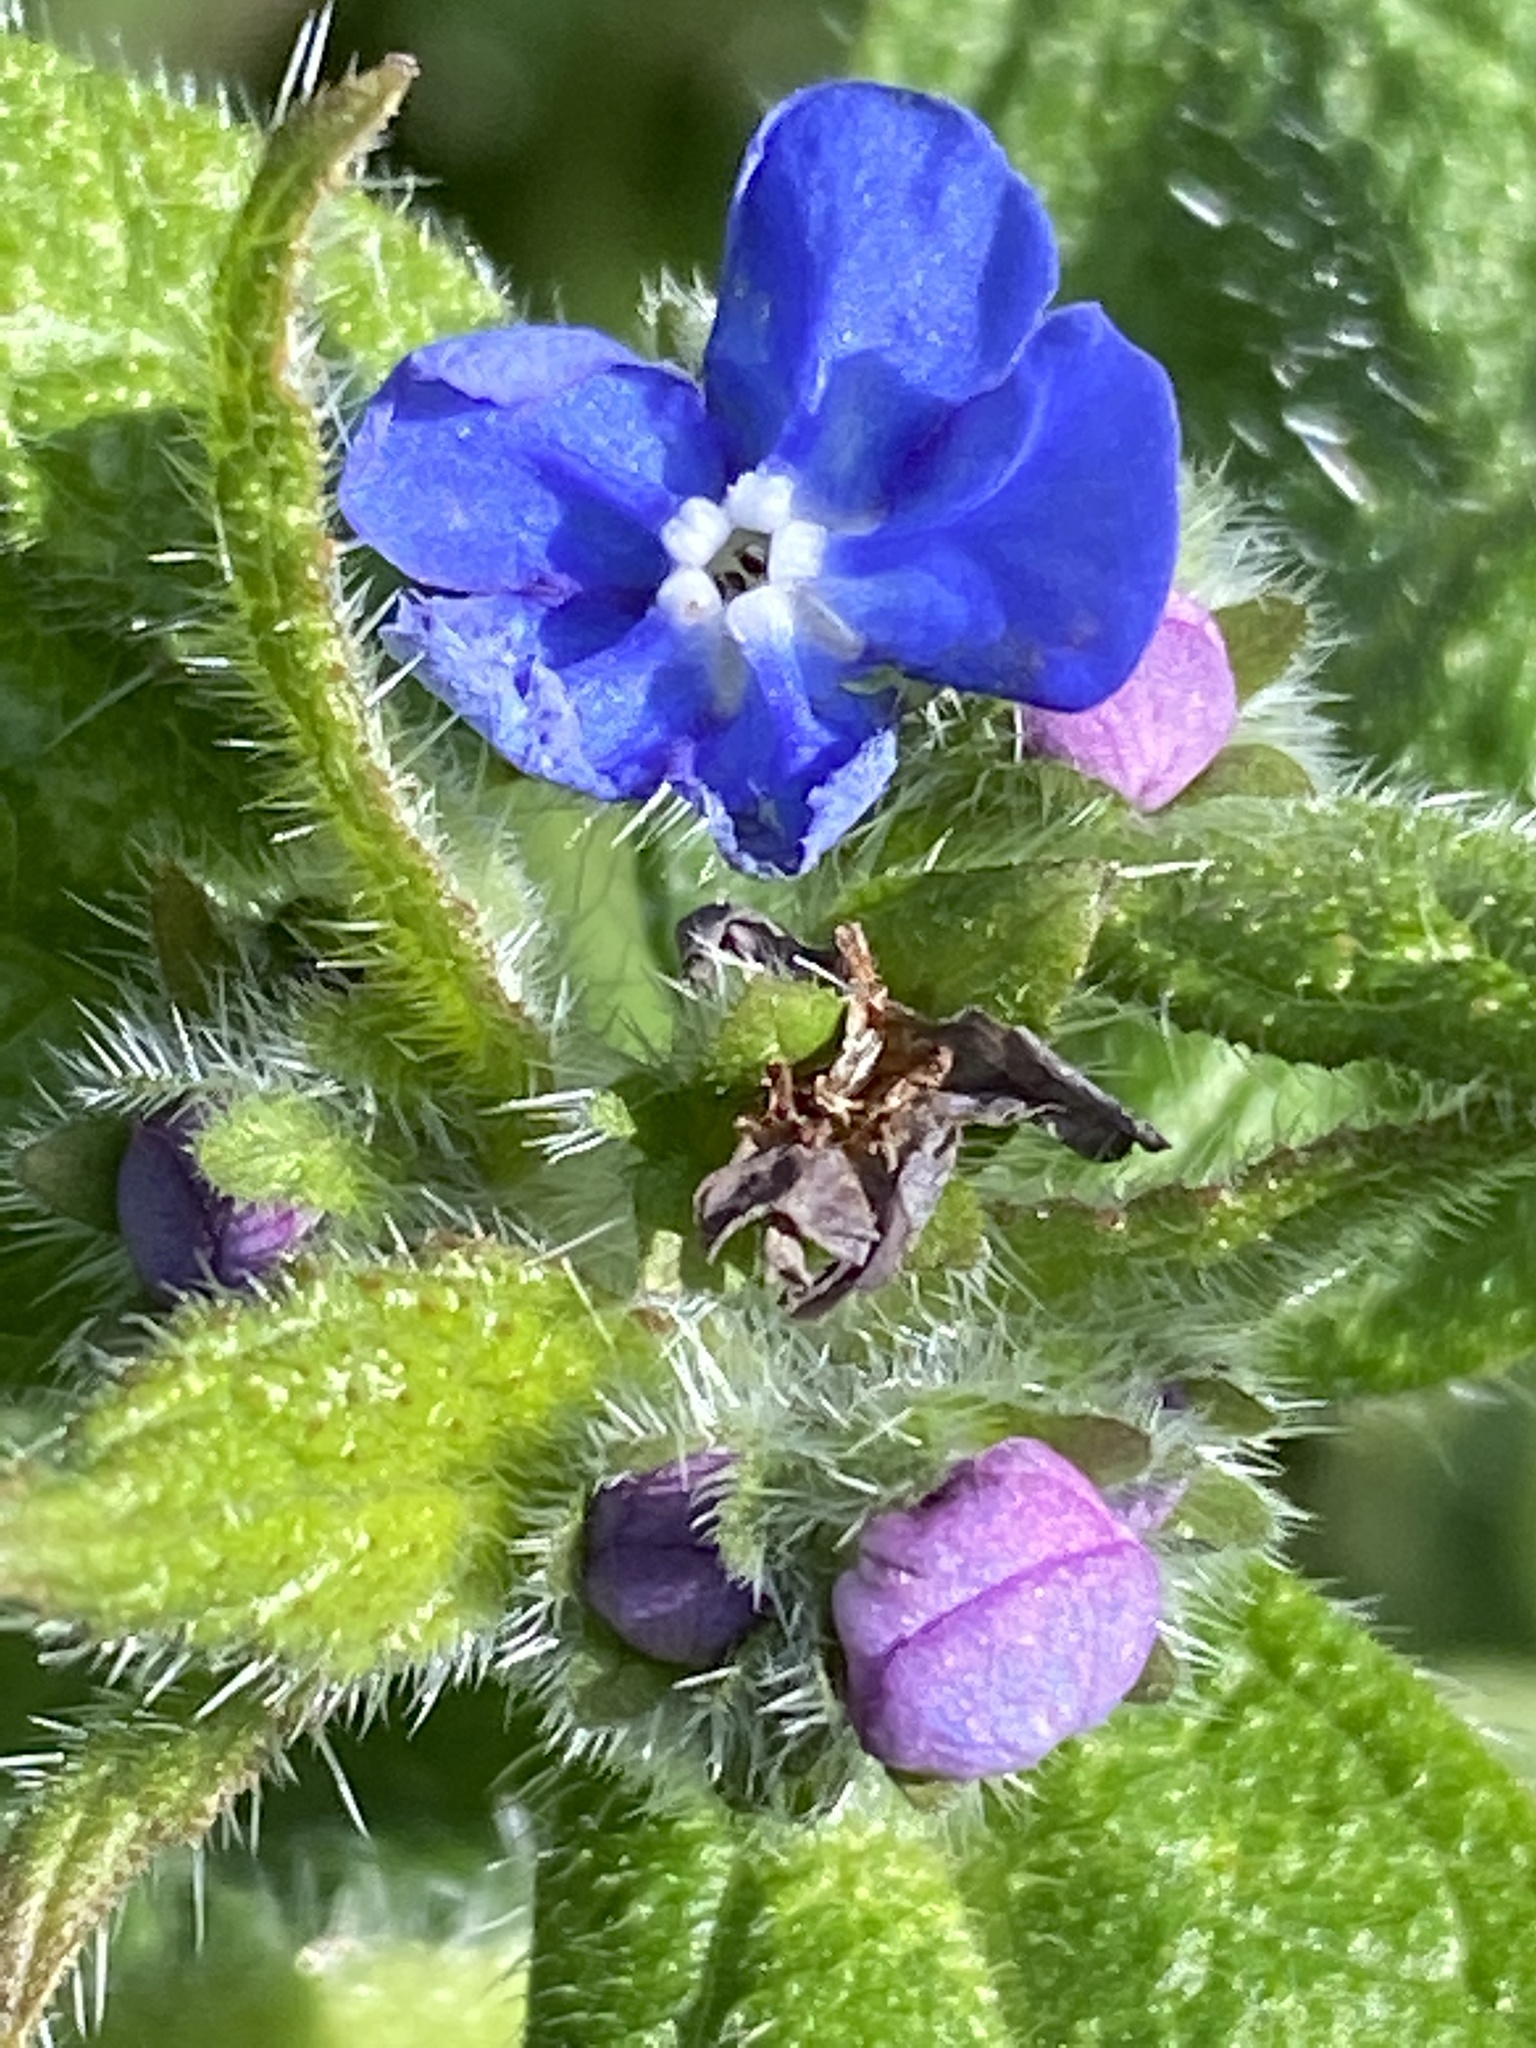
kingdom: Plantae
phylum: Tracheophyta
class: Magnoliopsida
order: Boraginales
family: Boraginaceae
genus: Pentaglottis
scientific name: Pentaglottis sempervirens
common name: Green alkanet
